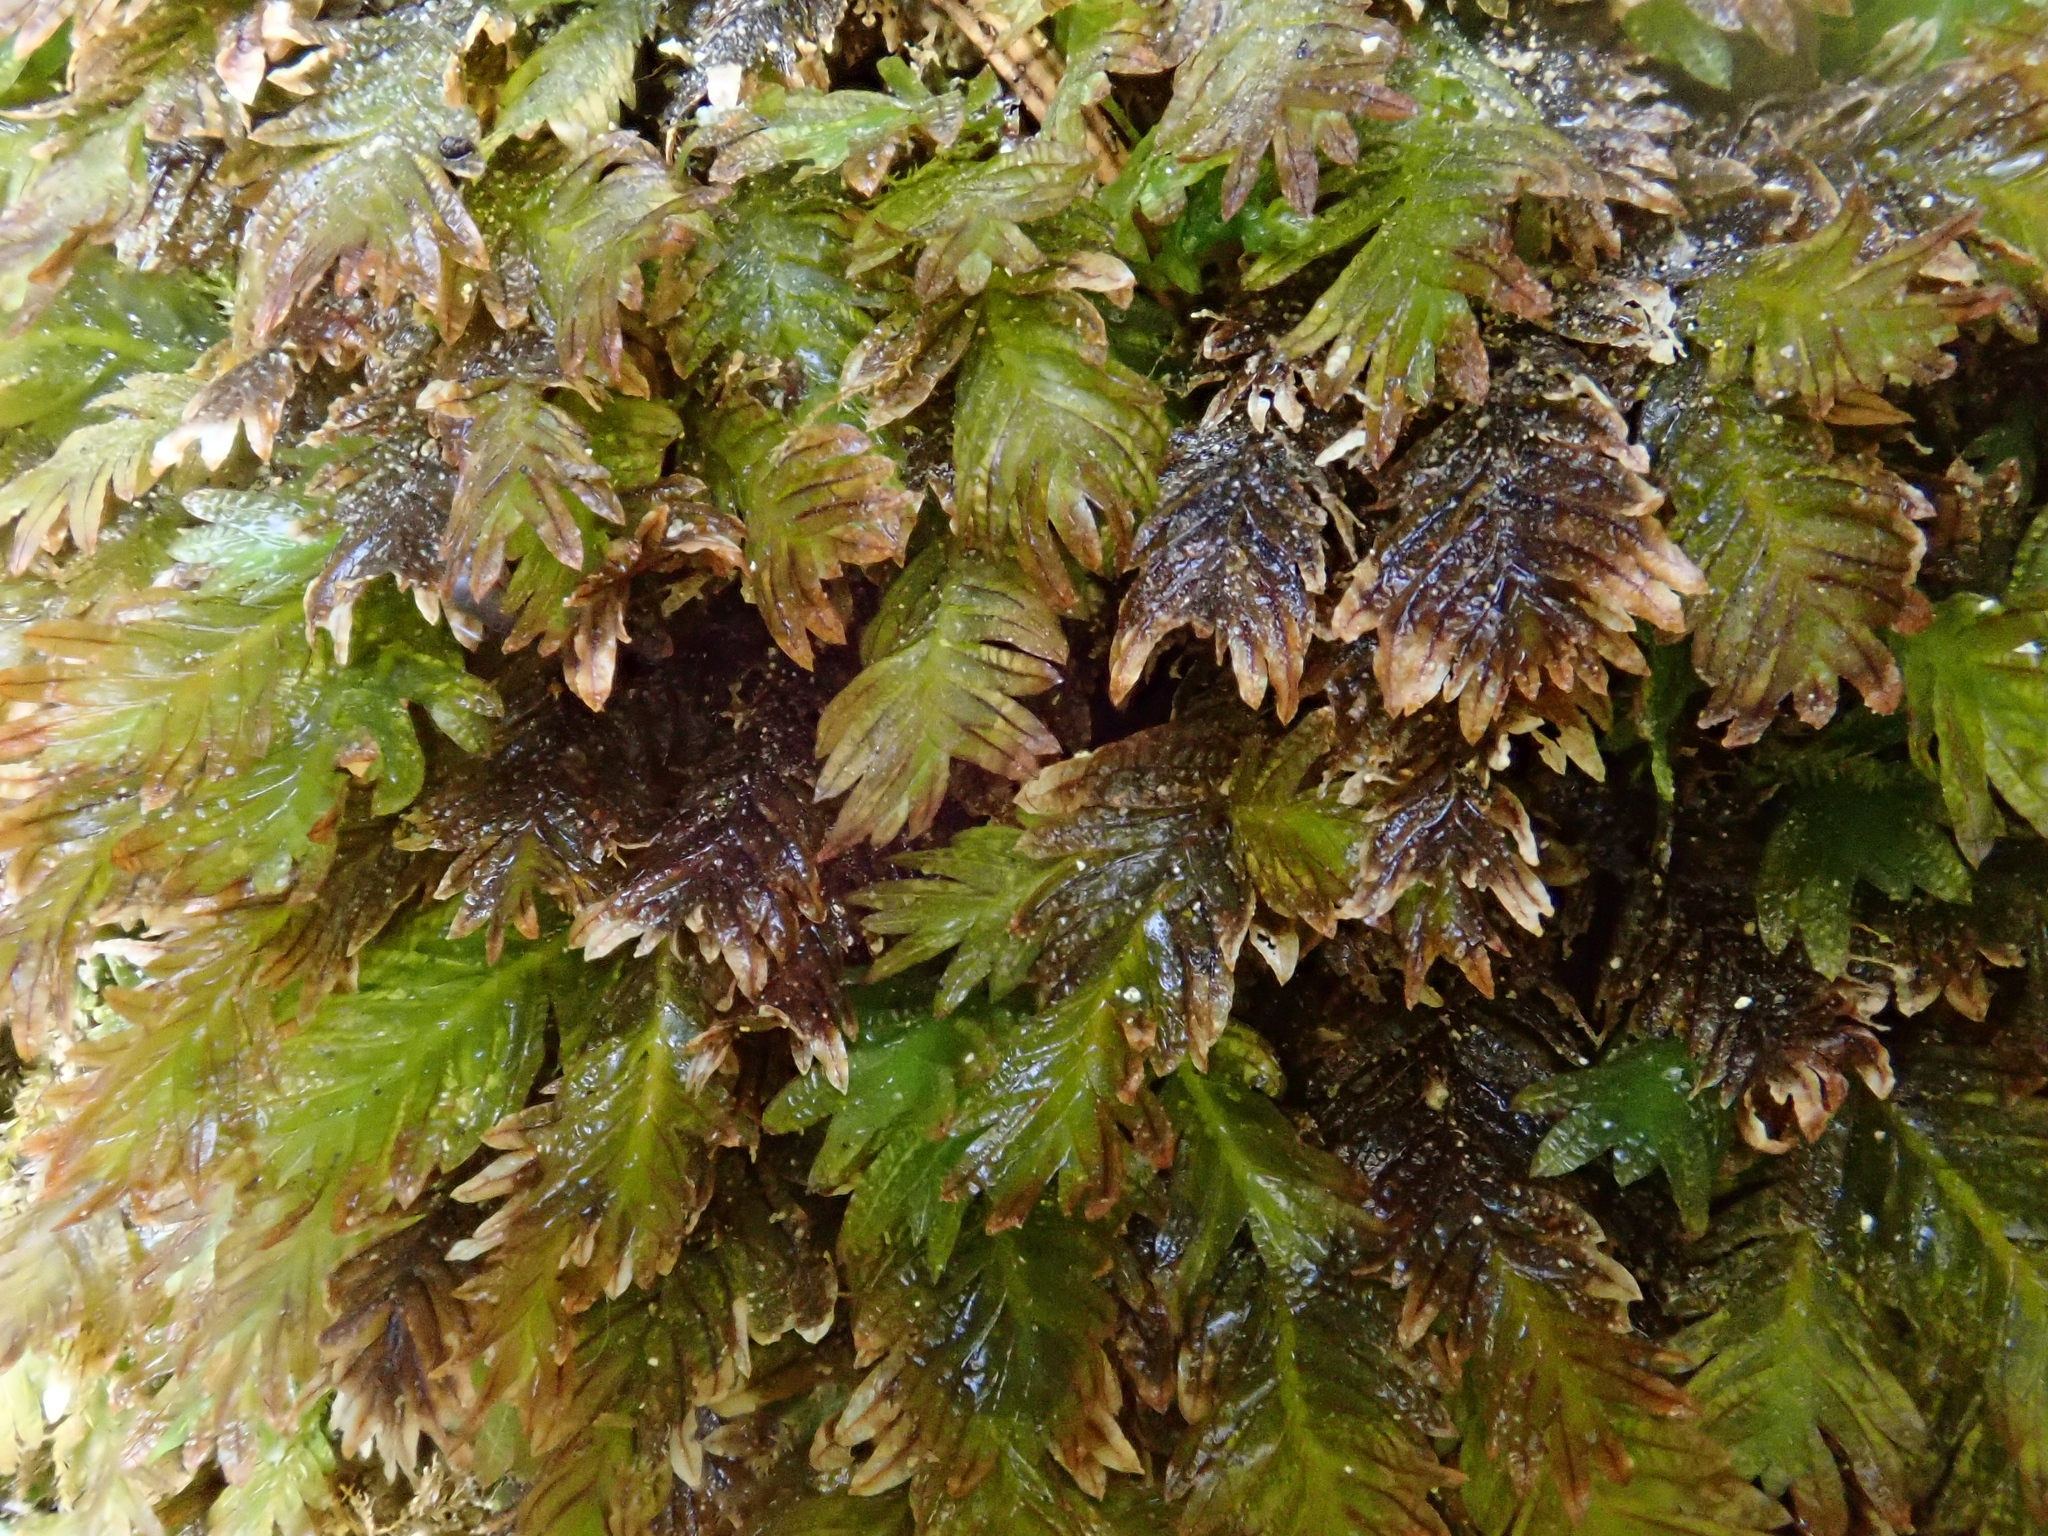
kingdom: Plantae
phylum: Bryophyta
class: Bryopsida
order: Dicranales
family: Fissidentaceae
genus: Fissidens
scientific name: Fissidens dubius
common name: Rock pocket moss
